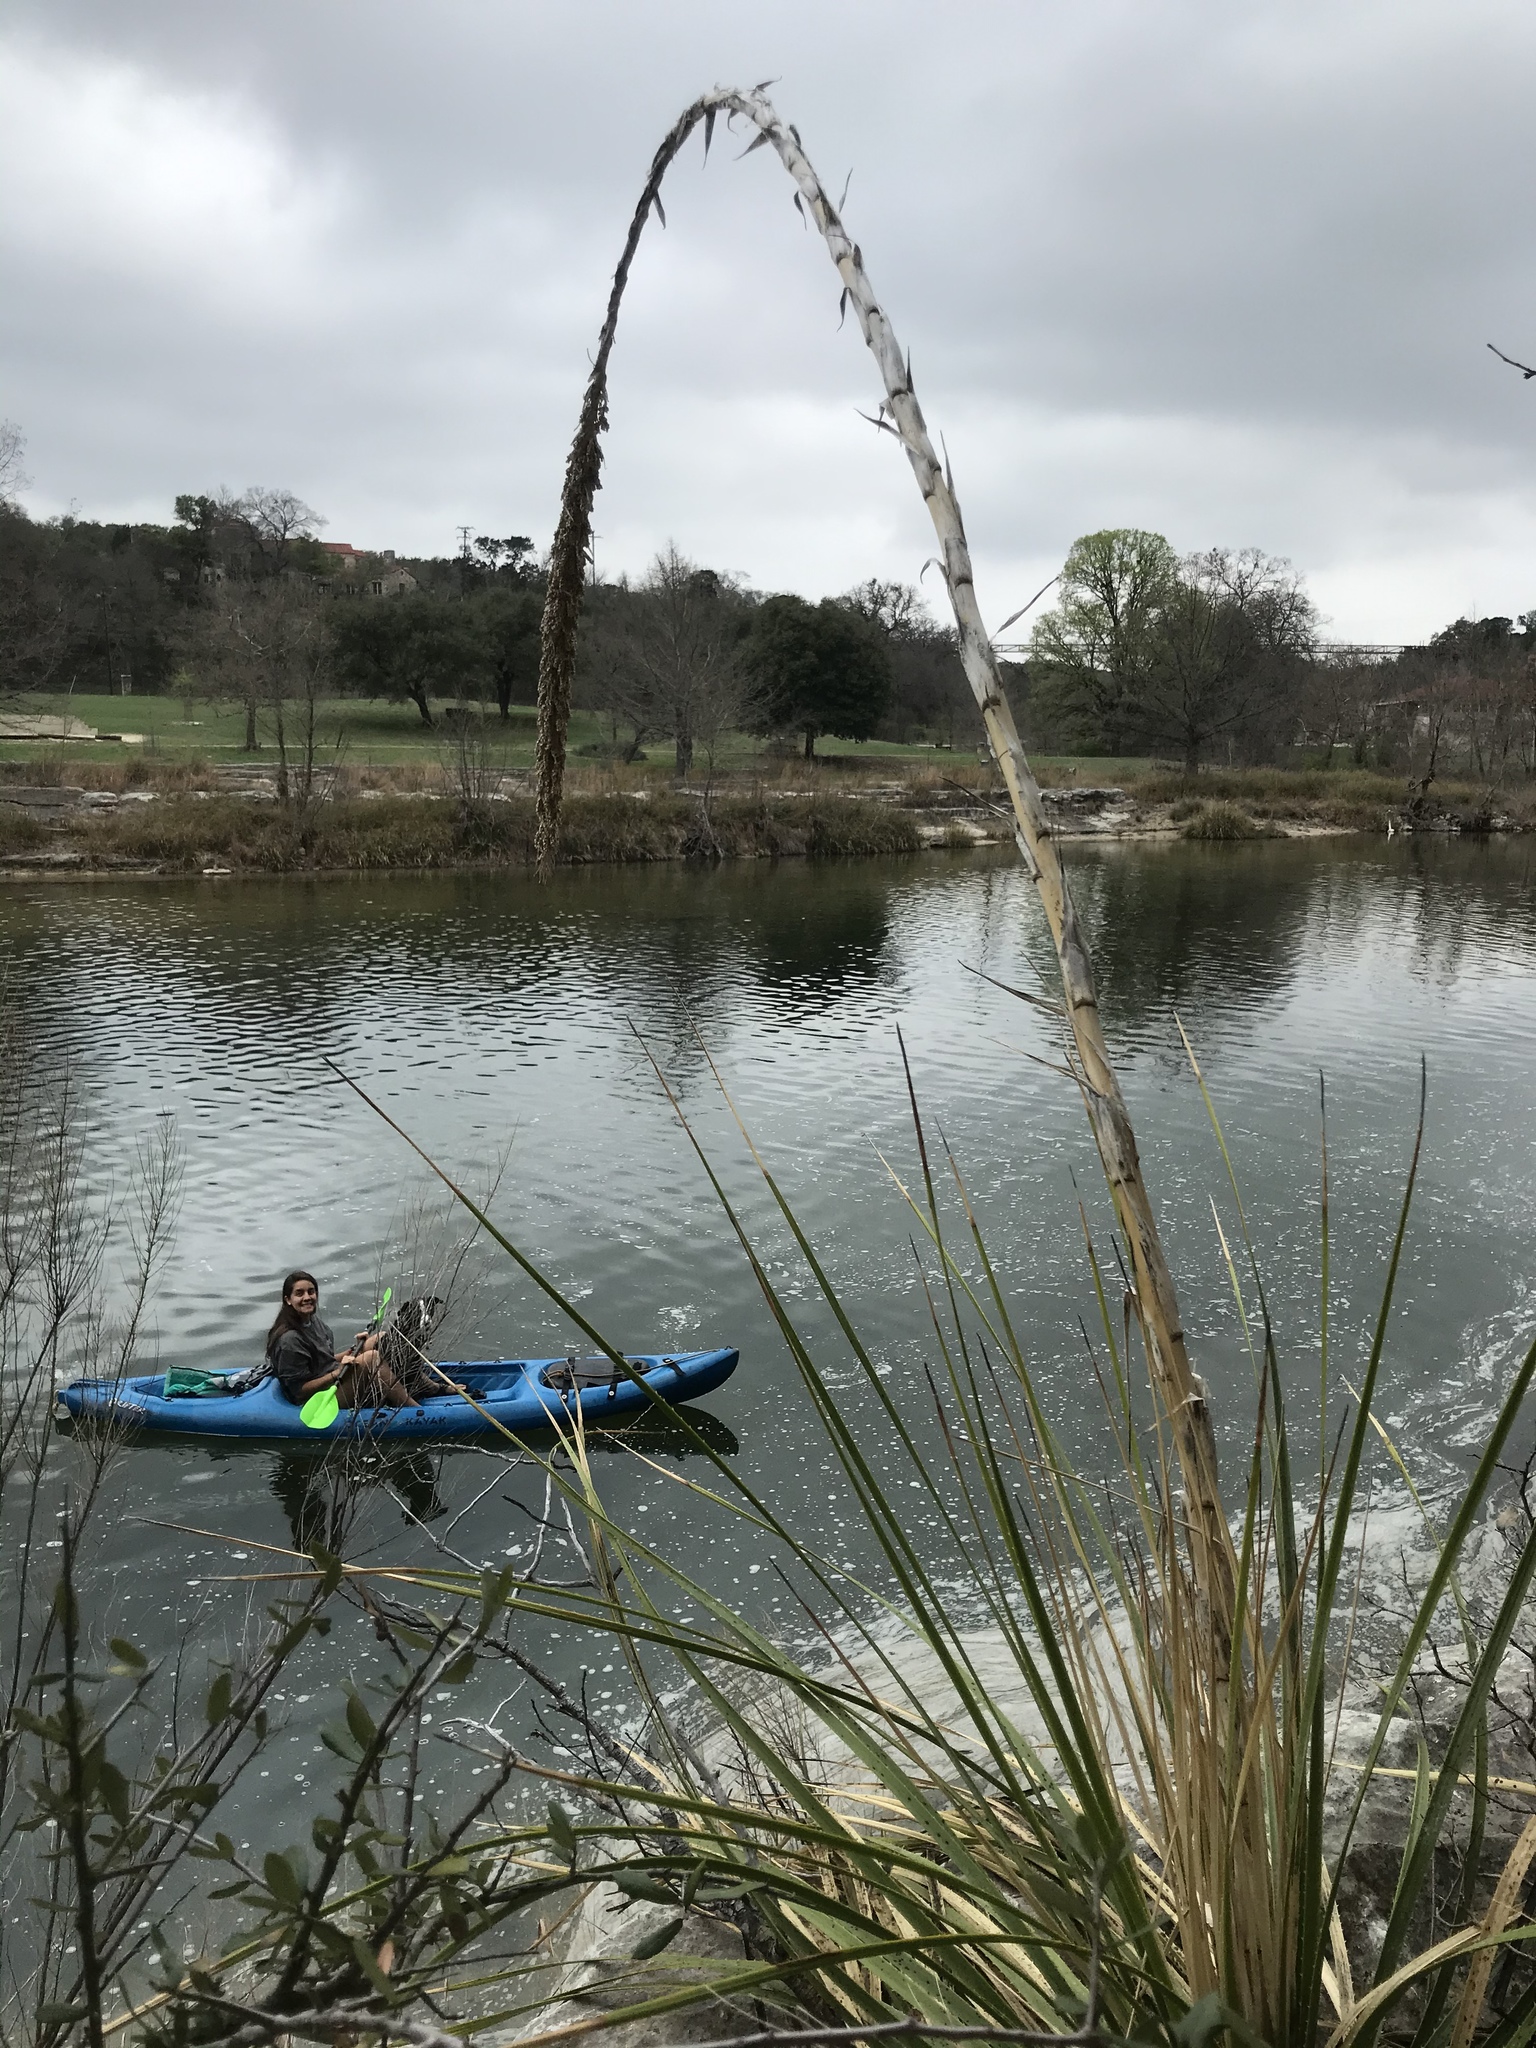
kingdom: Plantae
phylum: Tracheophyta
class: Liliopsida
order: Asparagales
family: Asparagaceae
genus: Dasylirion
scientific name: Dasylirion texanum
